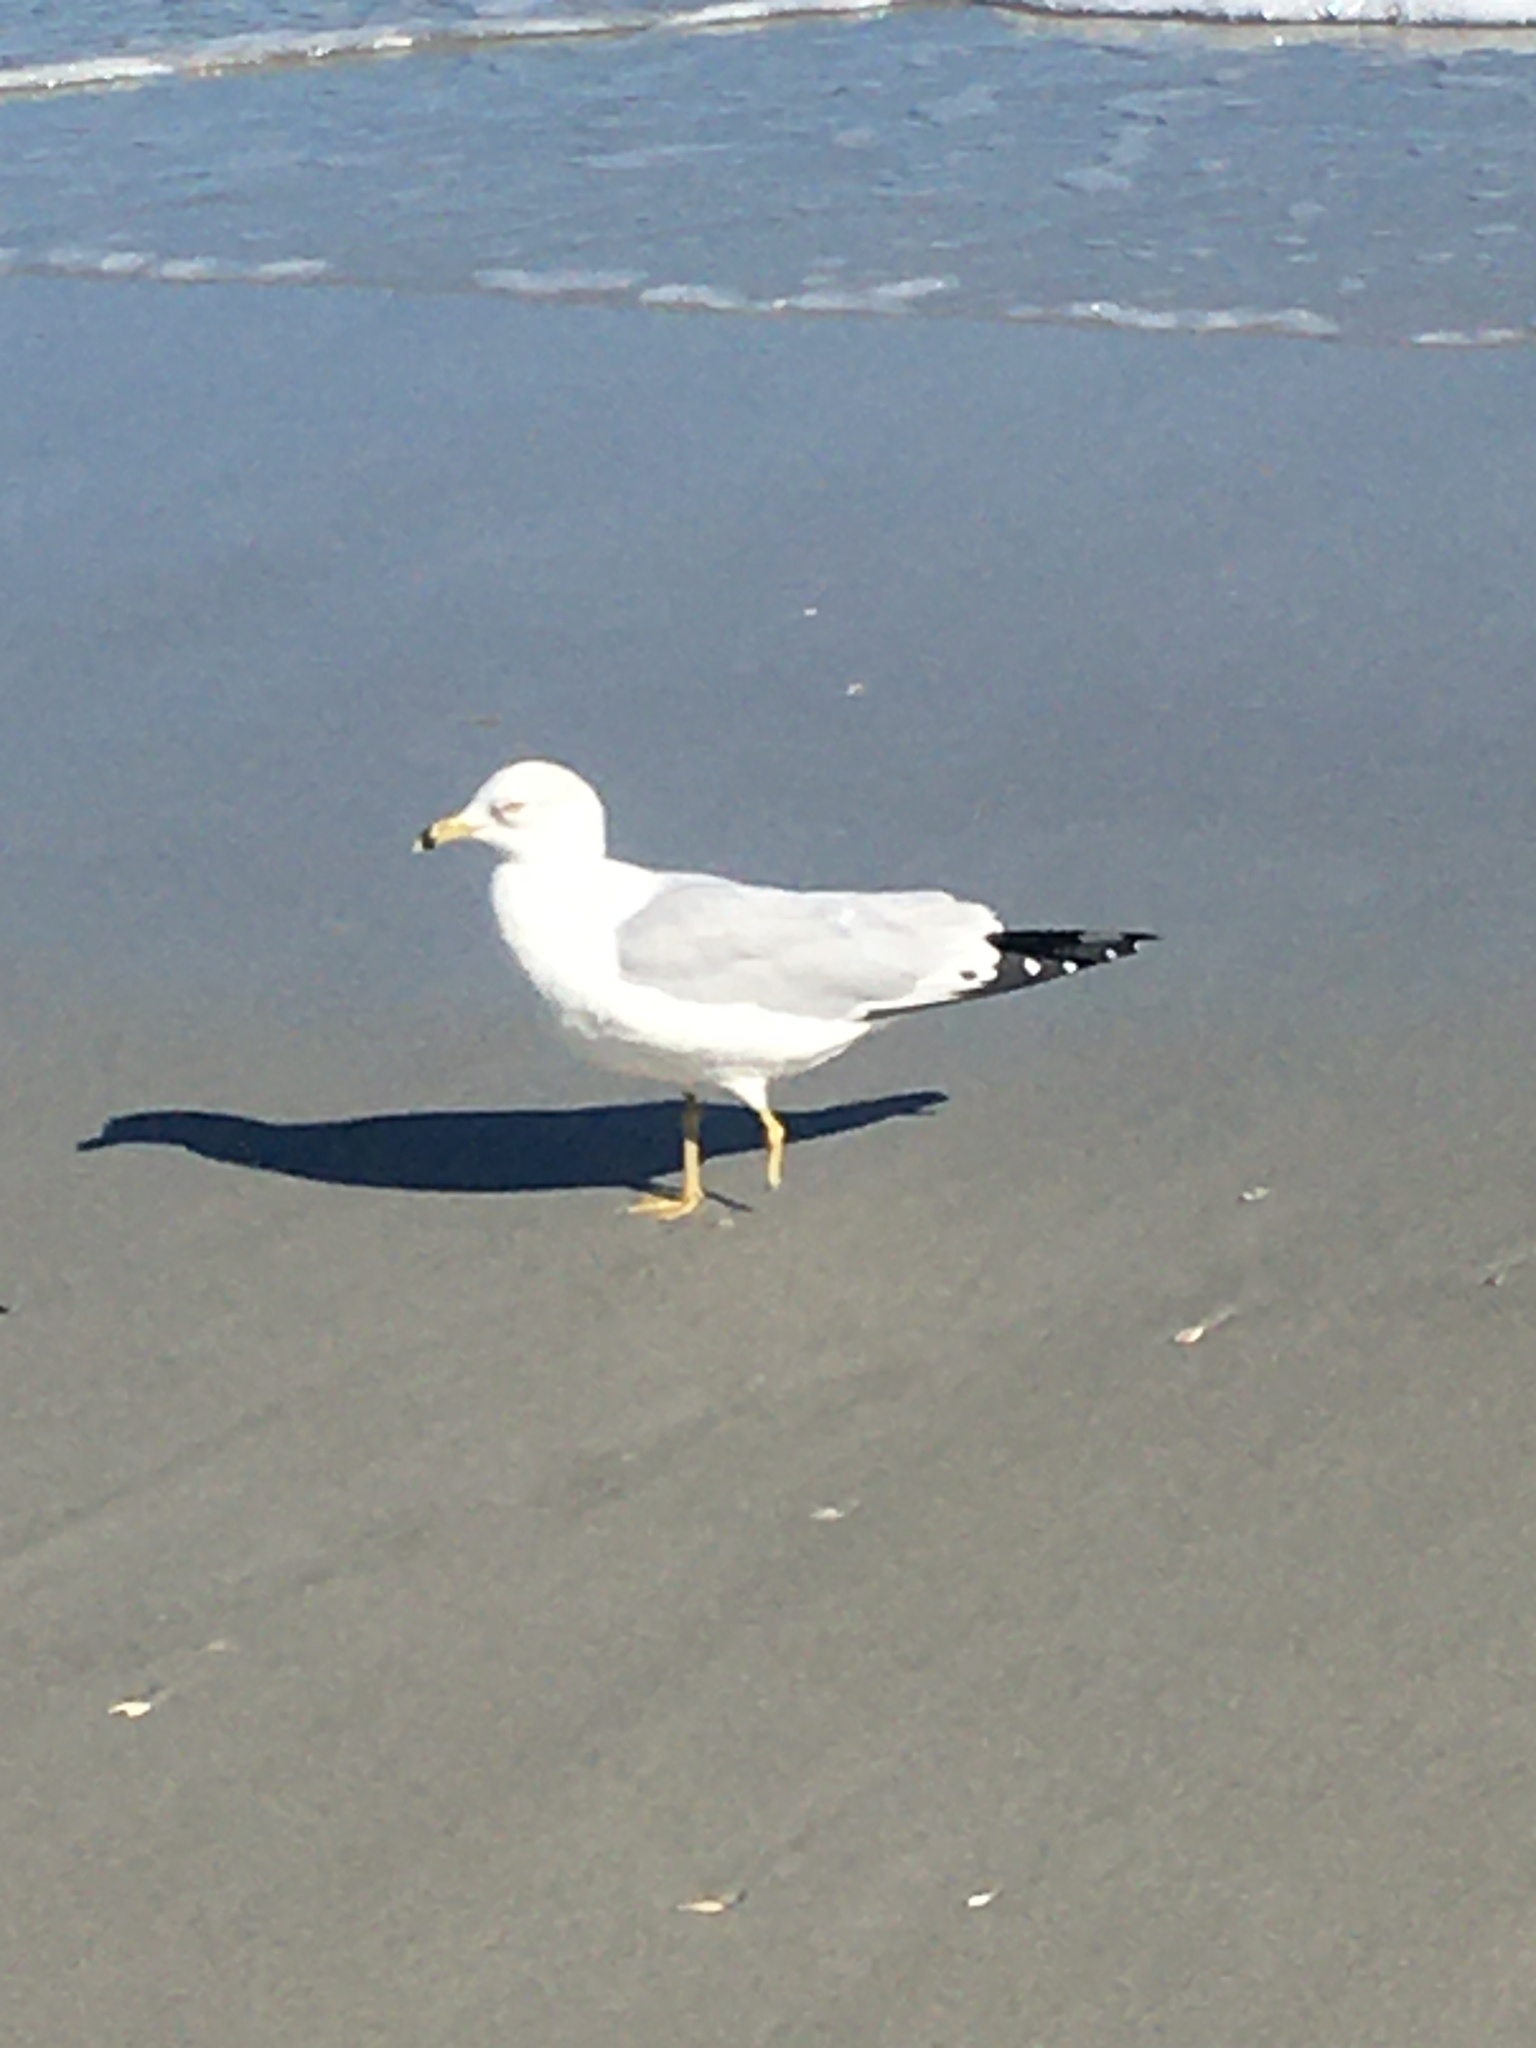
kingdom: Animalia
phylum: Chordata
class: Aves
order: Charadriiformes
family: Laridae
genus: Larus
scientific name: Larus delawarensis
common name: Ring-billed gull
